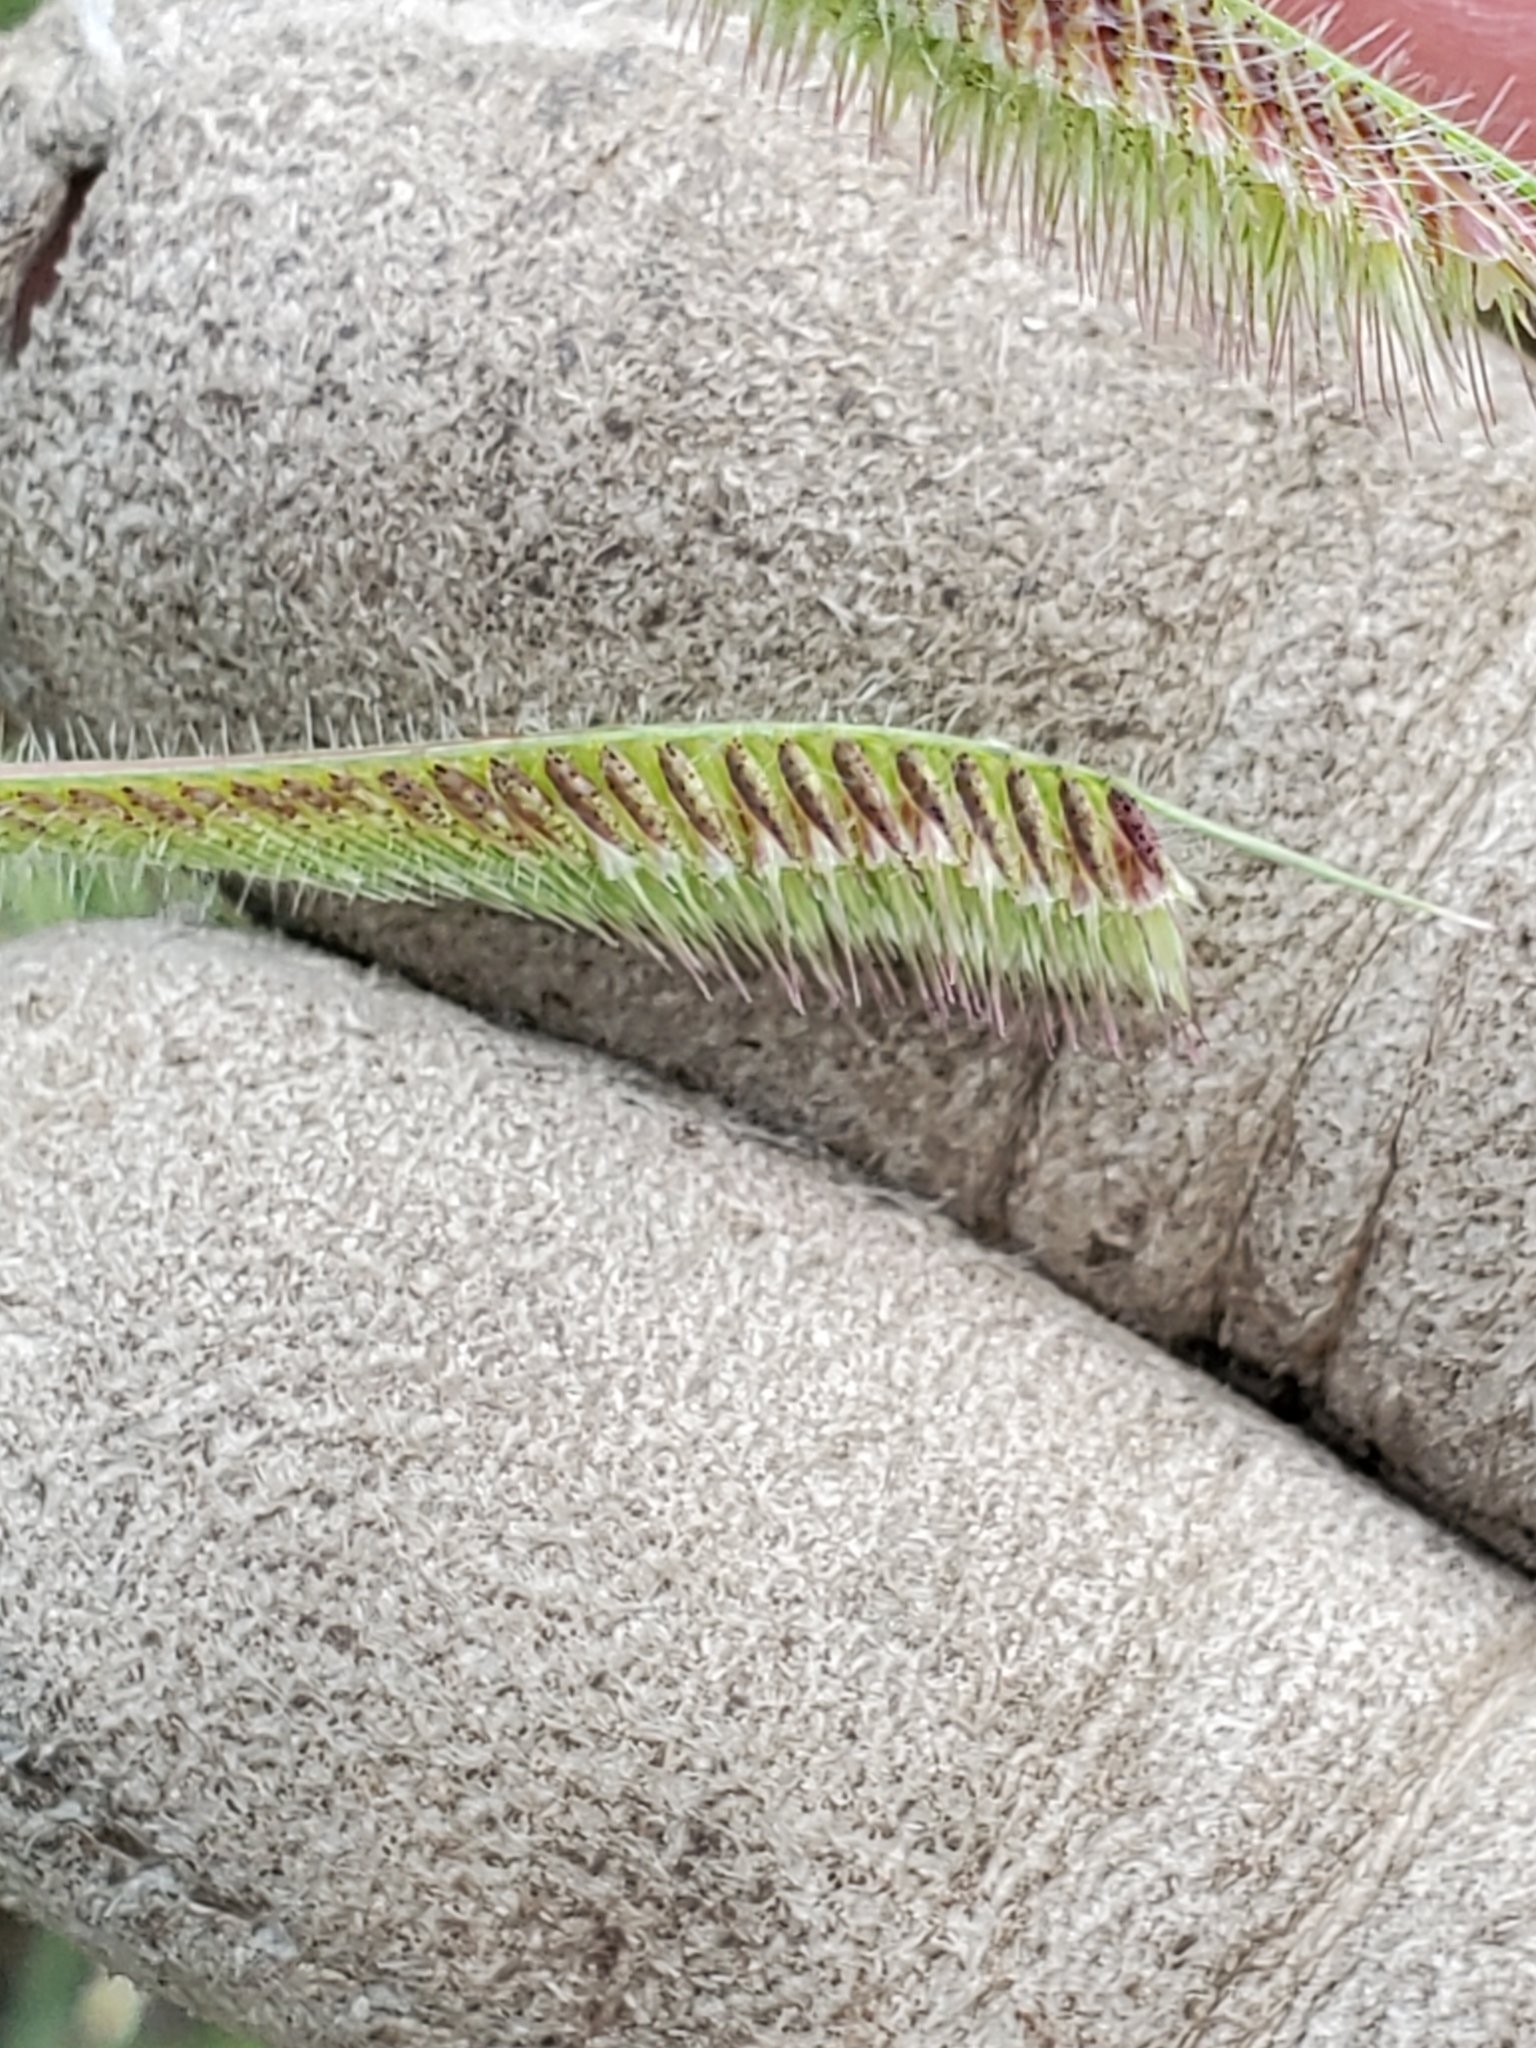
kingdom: Plantae
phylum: Tracheophyta
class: Liliopsida
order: Poales
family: Poaceae
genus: Bouteloua
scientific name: Bouteloua hirsuta
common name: Hairy grama
